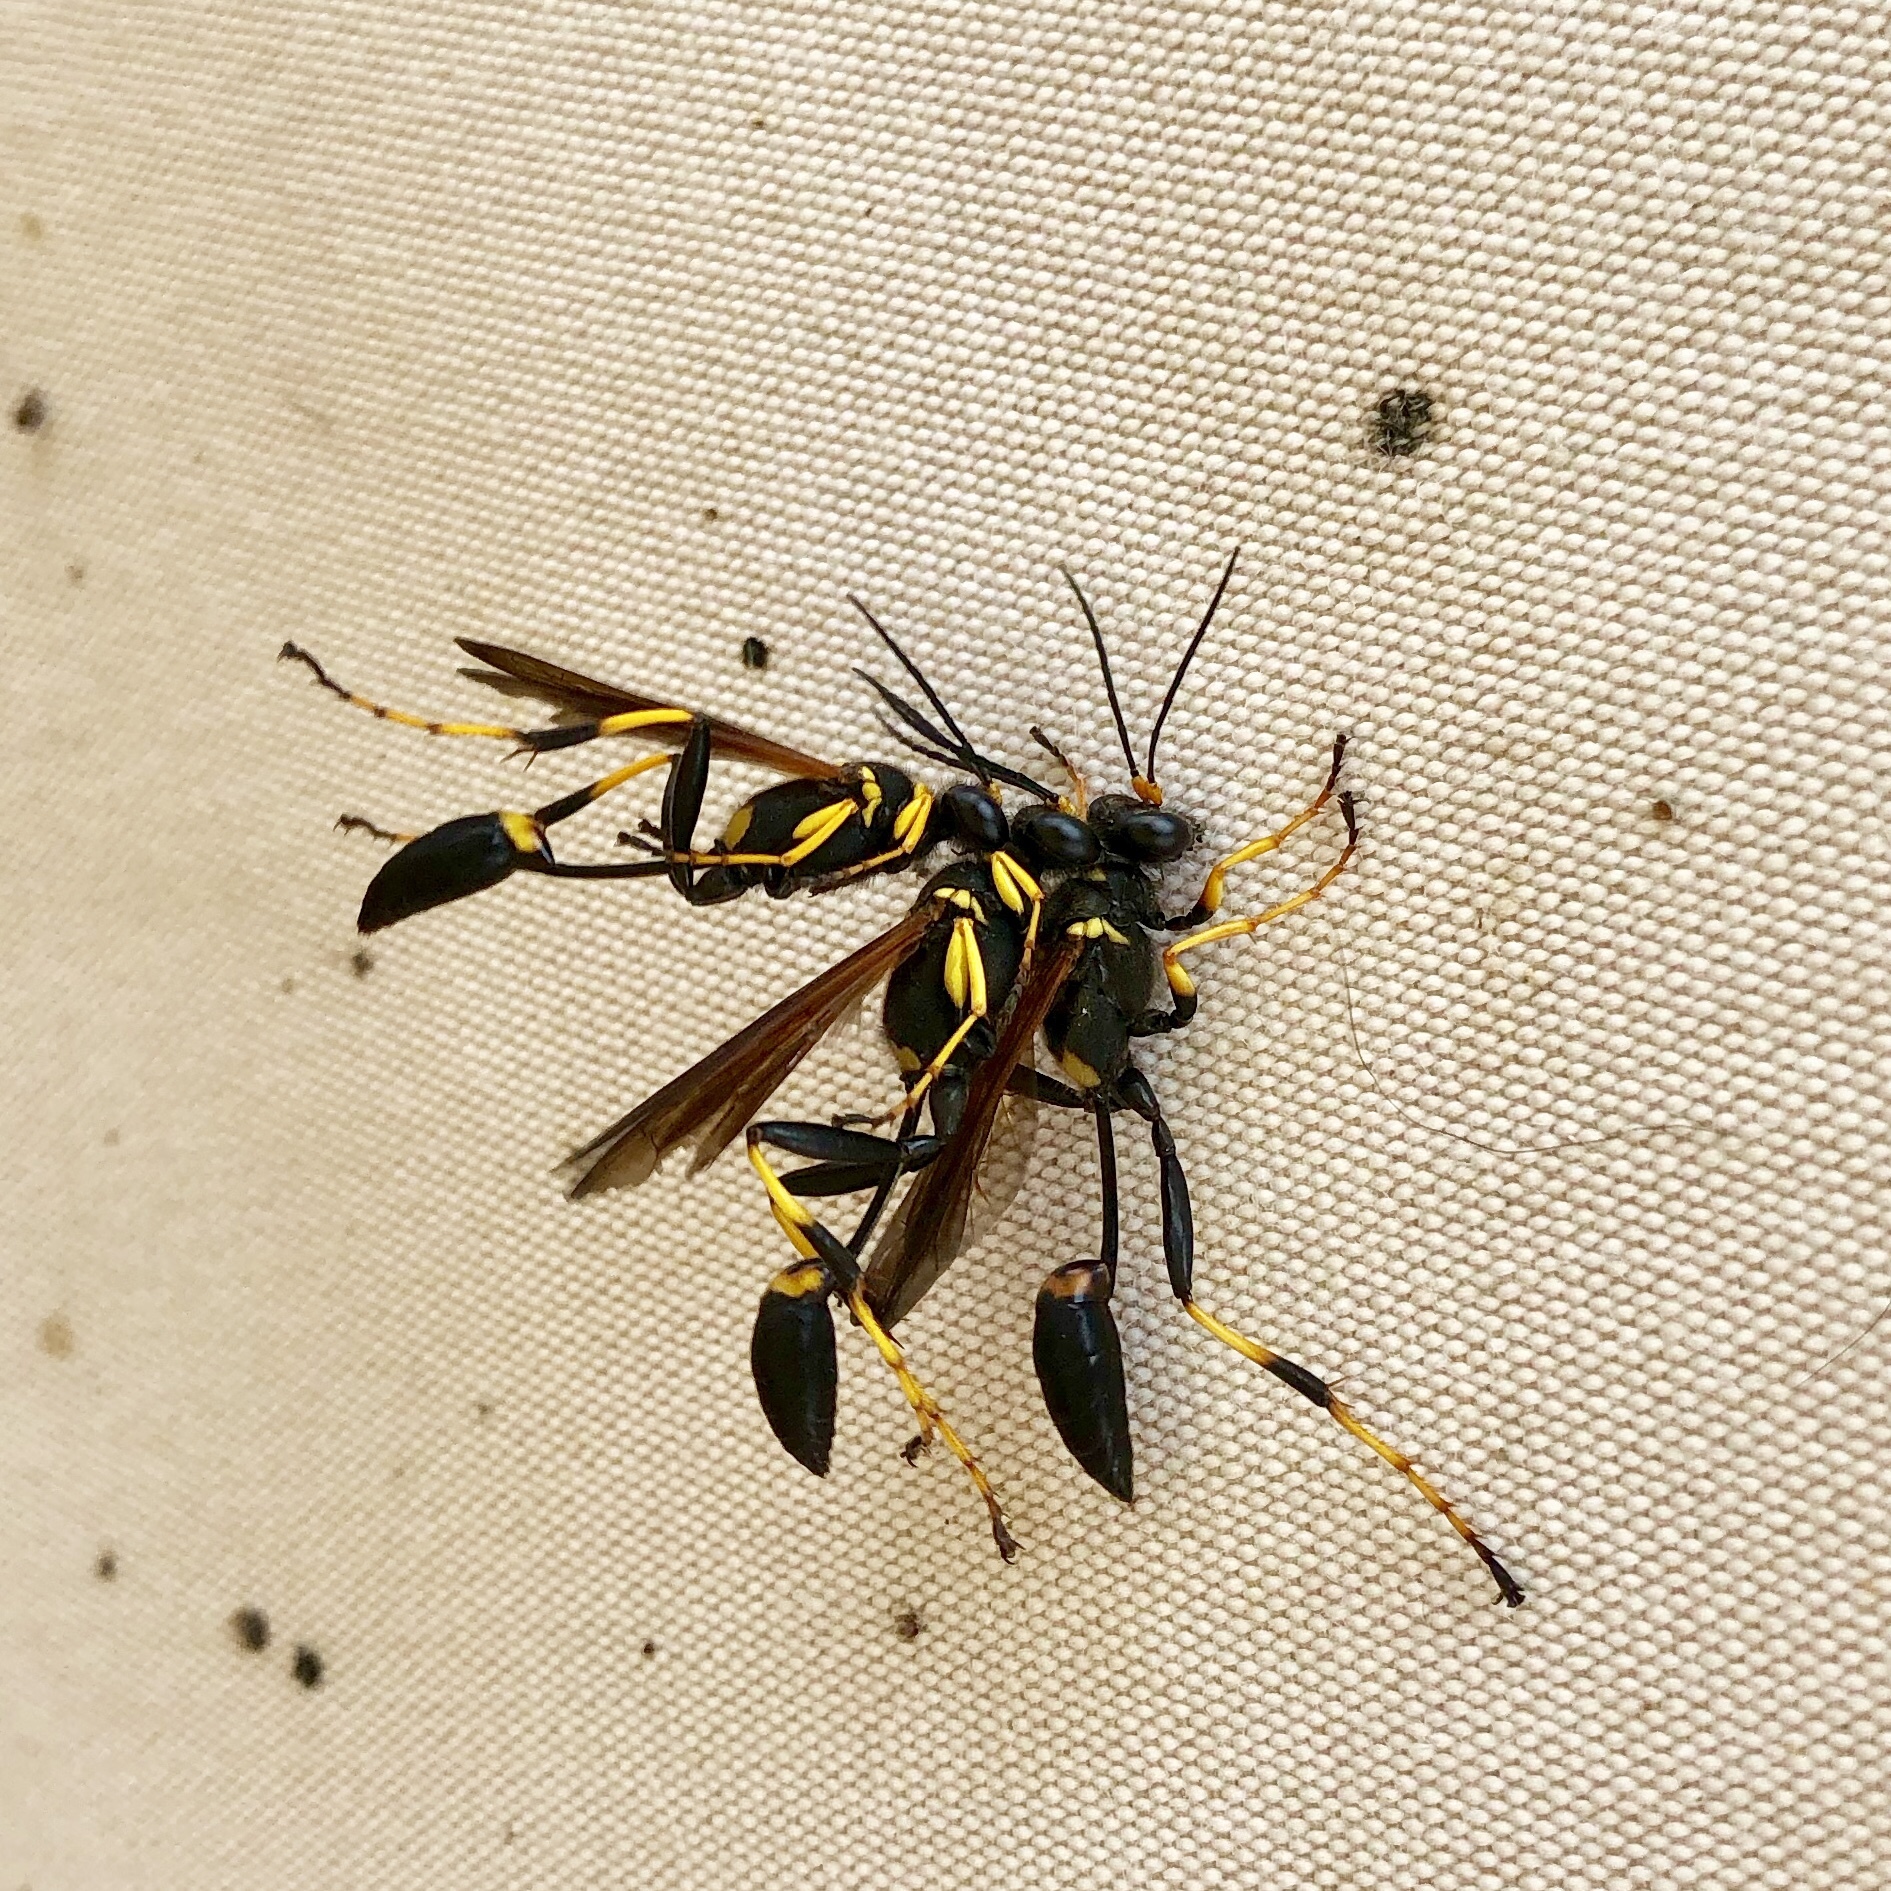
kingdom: Animalia
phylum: Arthropoda
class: Insecta
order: Hymenoptera
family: Sphecidae
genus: Sceliphron
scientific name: Sceliphron caementarium
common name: Mud dauber
